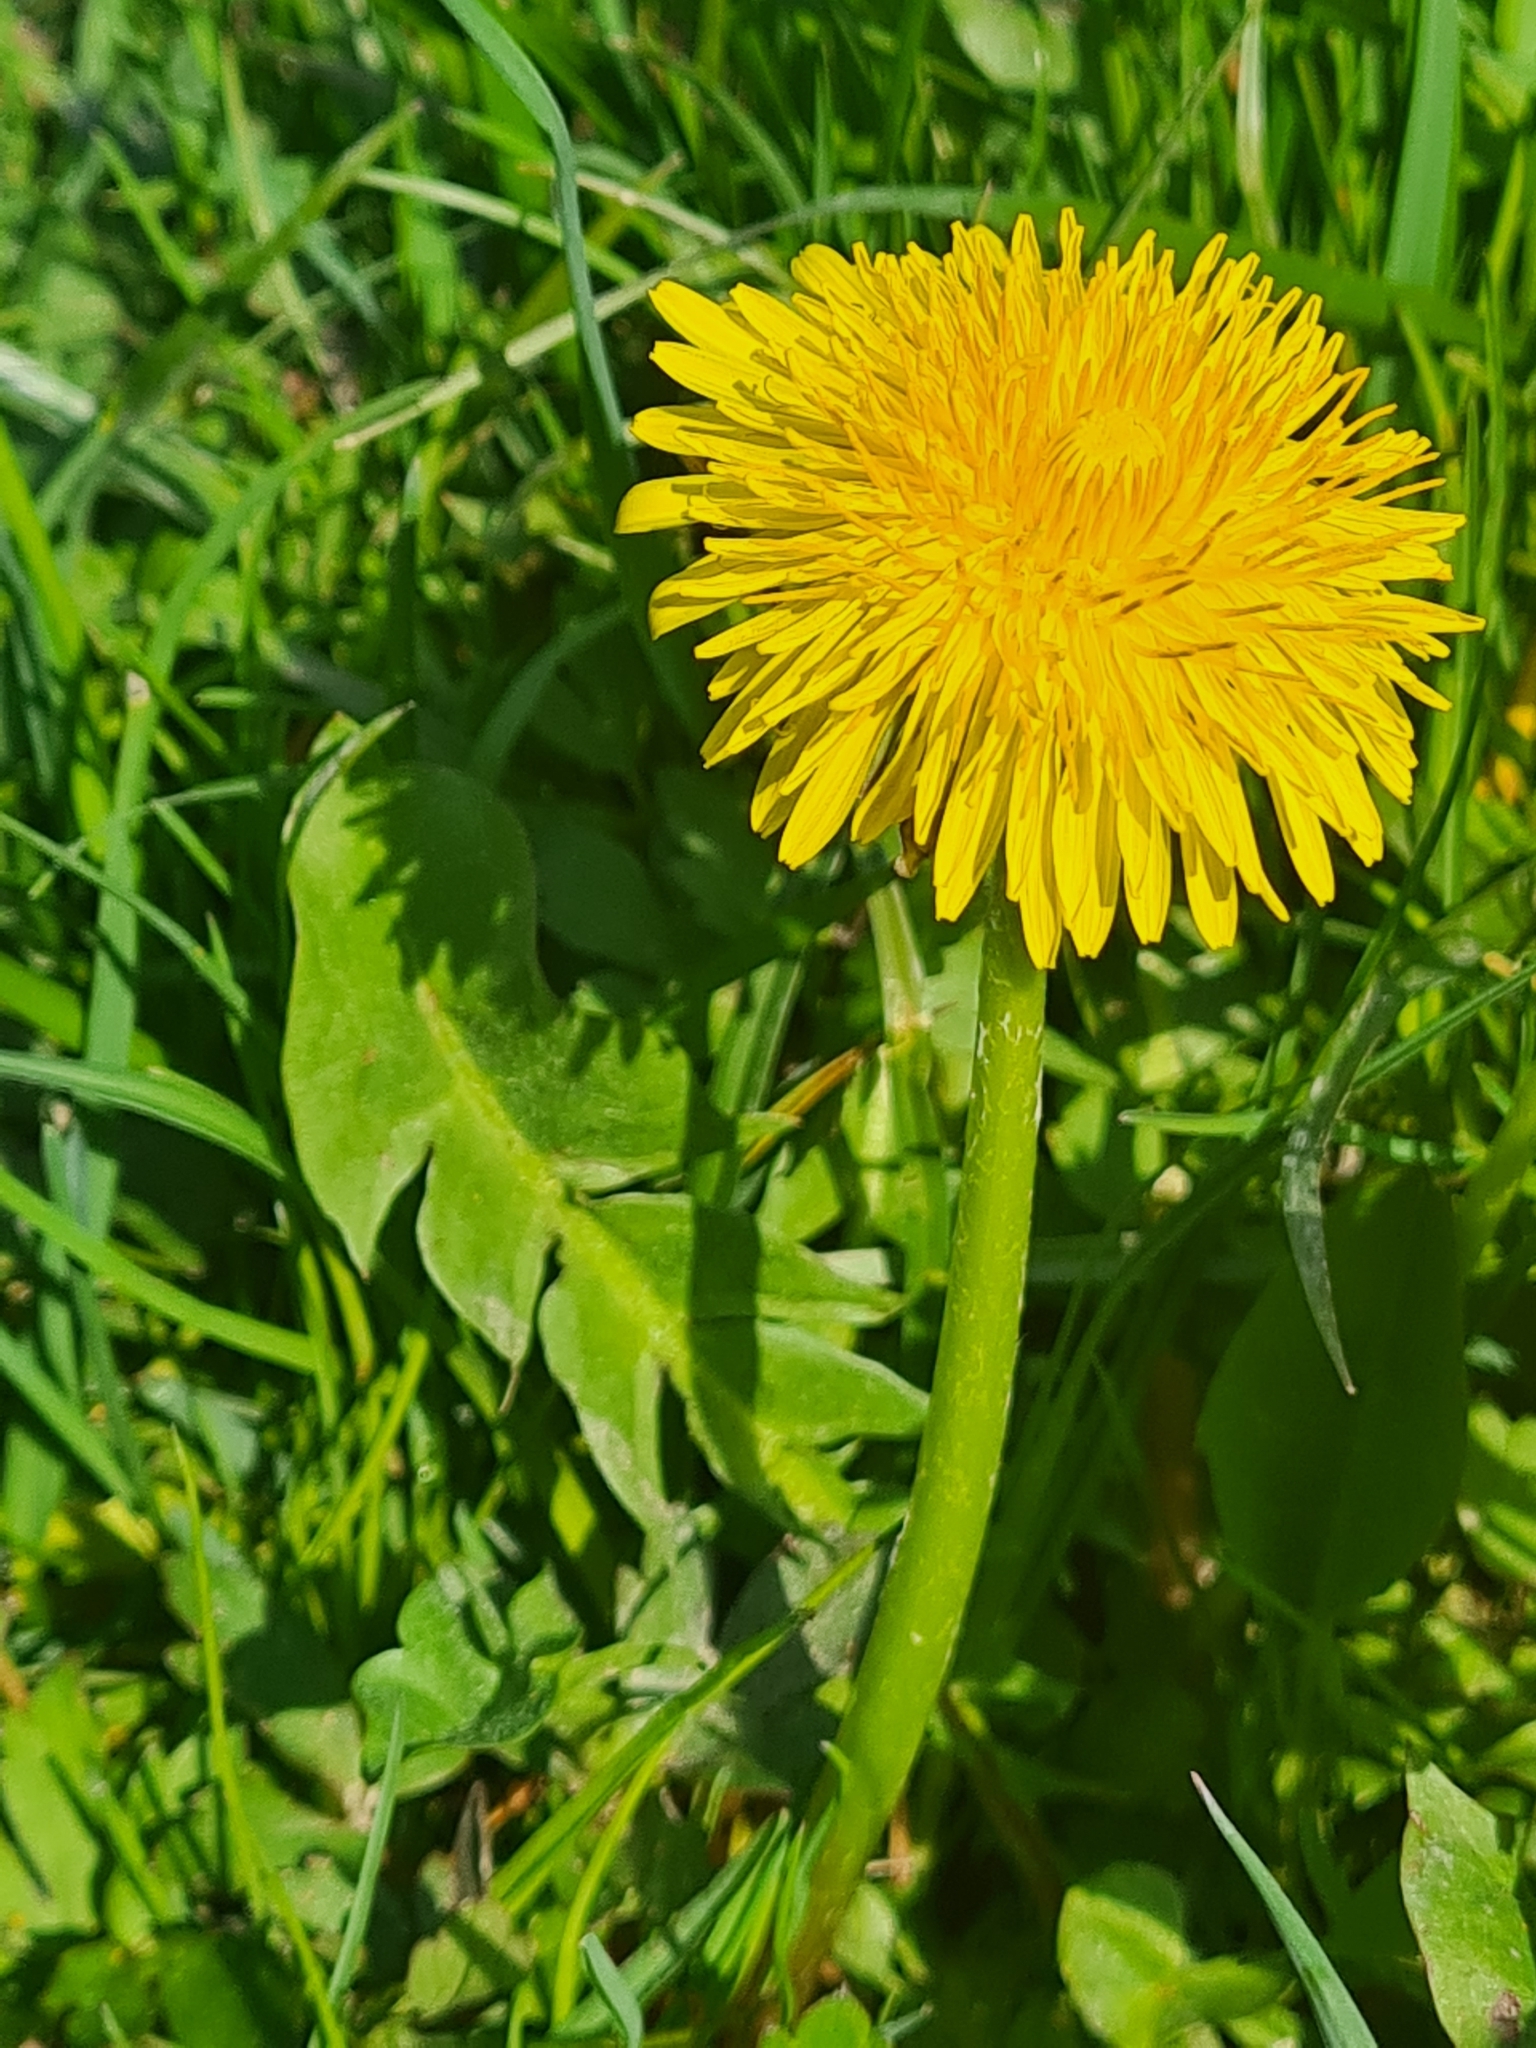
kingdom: Plantae
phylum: Tracheophyta
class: Magnoliopsida
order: Asterales
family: Asteraceae
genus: Taraxacum
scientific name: Taraxacum officinale
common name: Common dandelion
